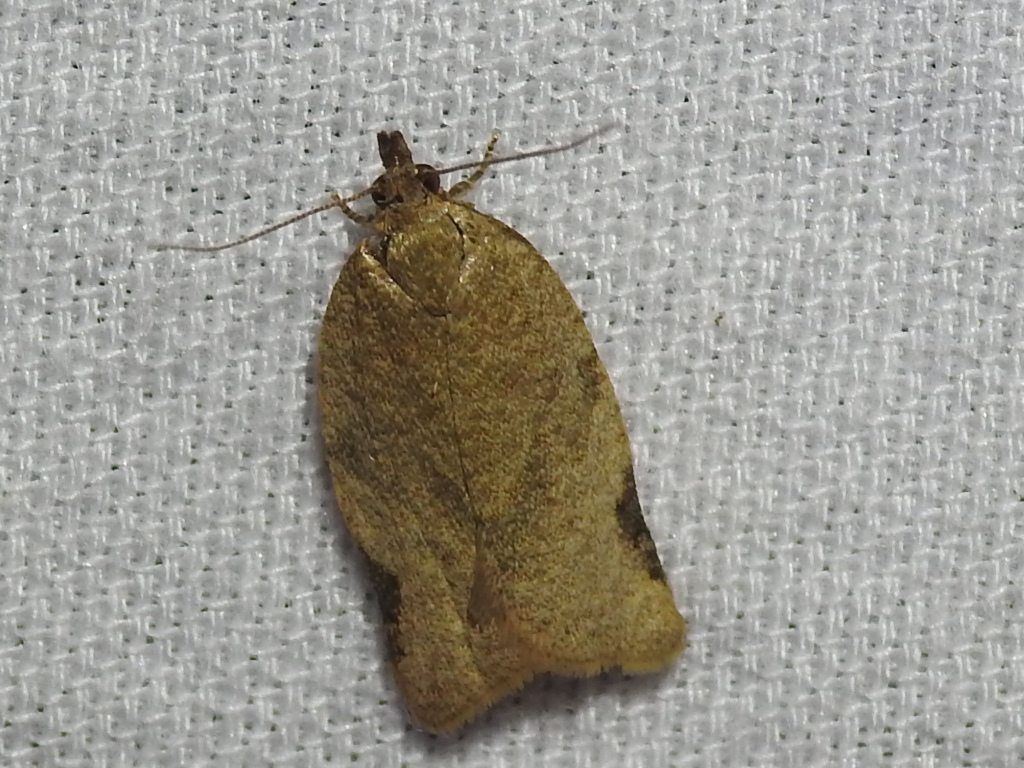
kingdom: Animalia
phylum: Arthropoda
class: Insecta
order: Lepidoptera
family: Tortricidae
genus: Clepsis
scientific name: Clepsis virescana
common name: Greenish apple moth
